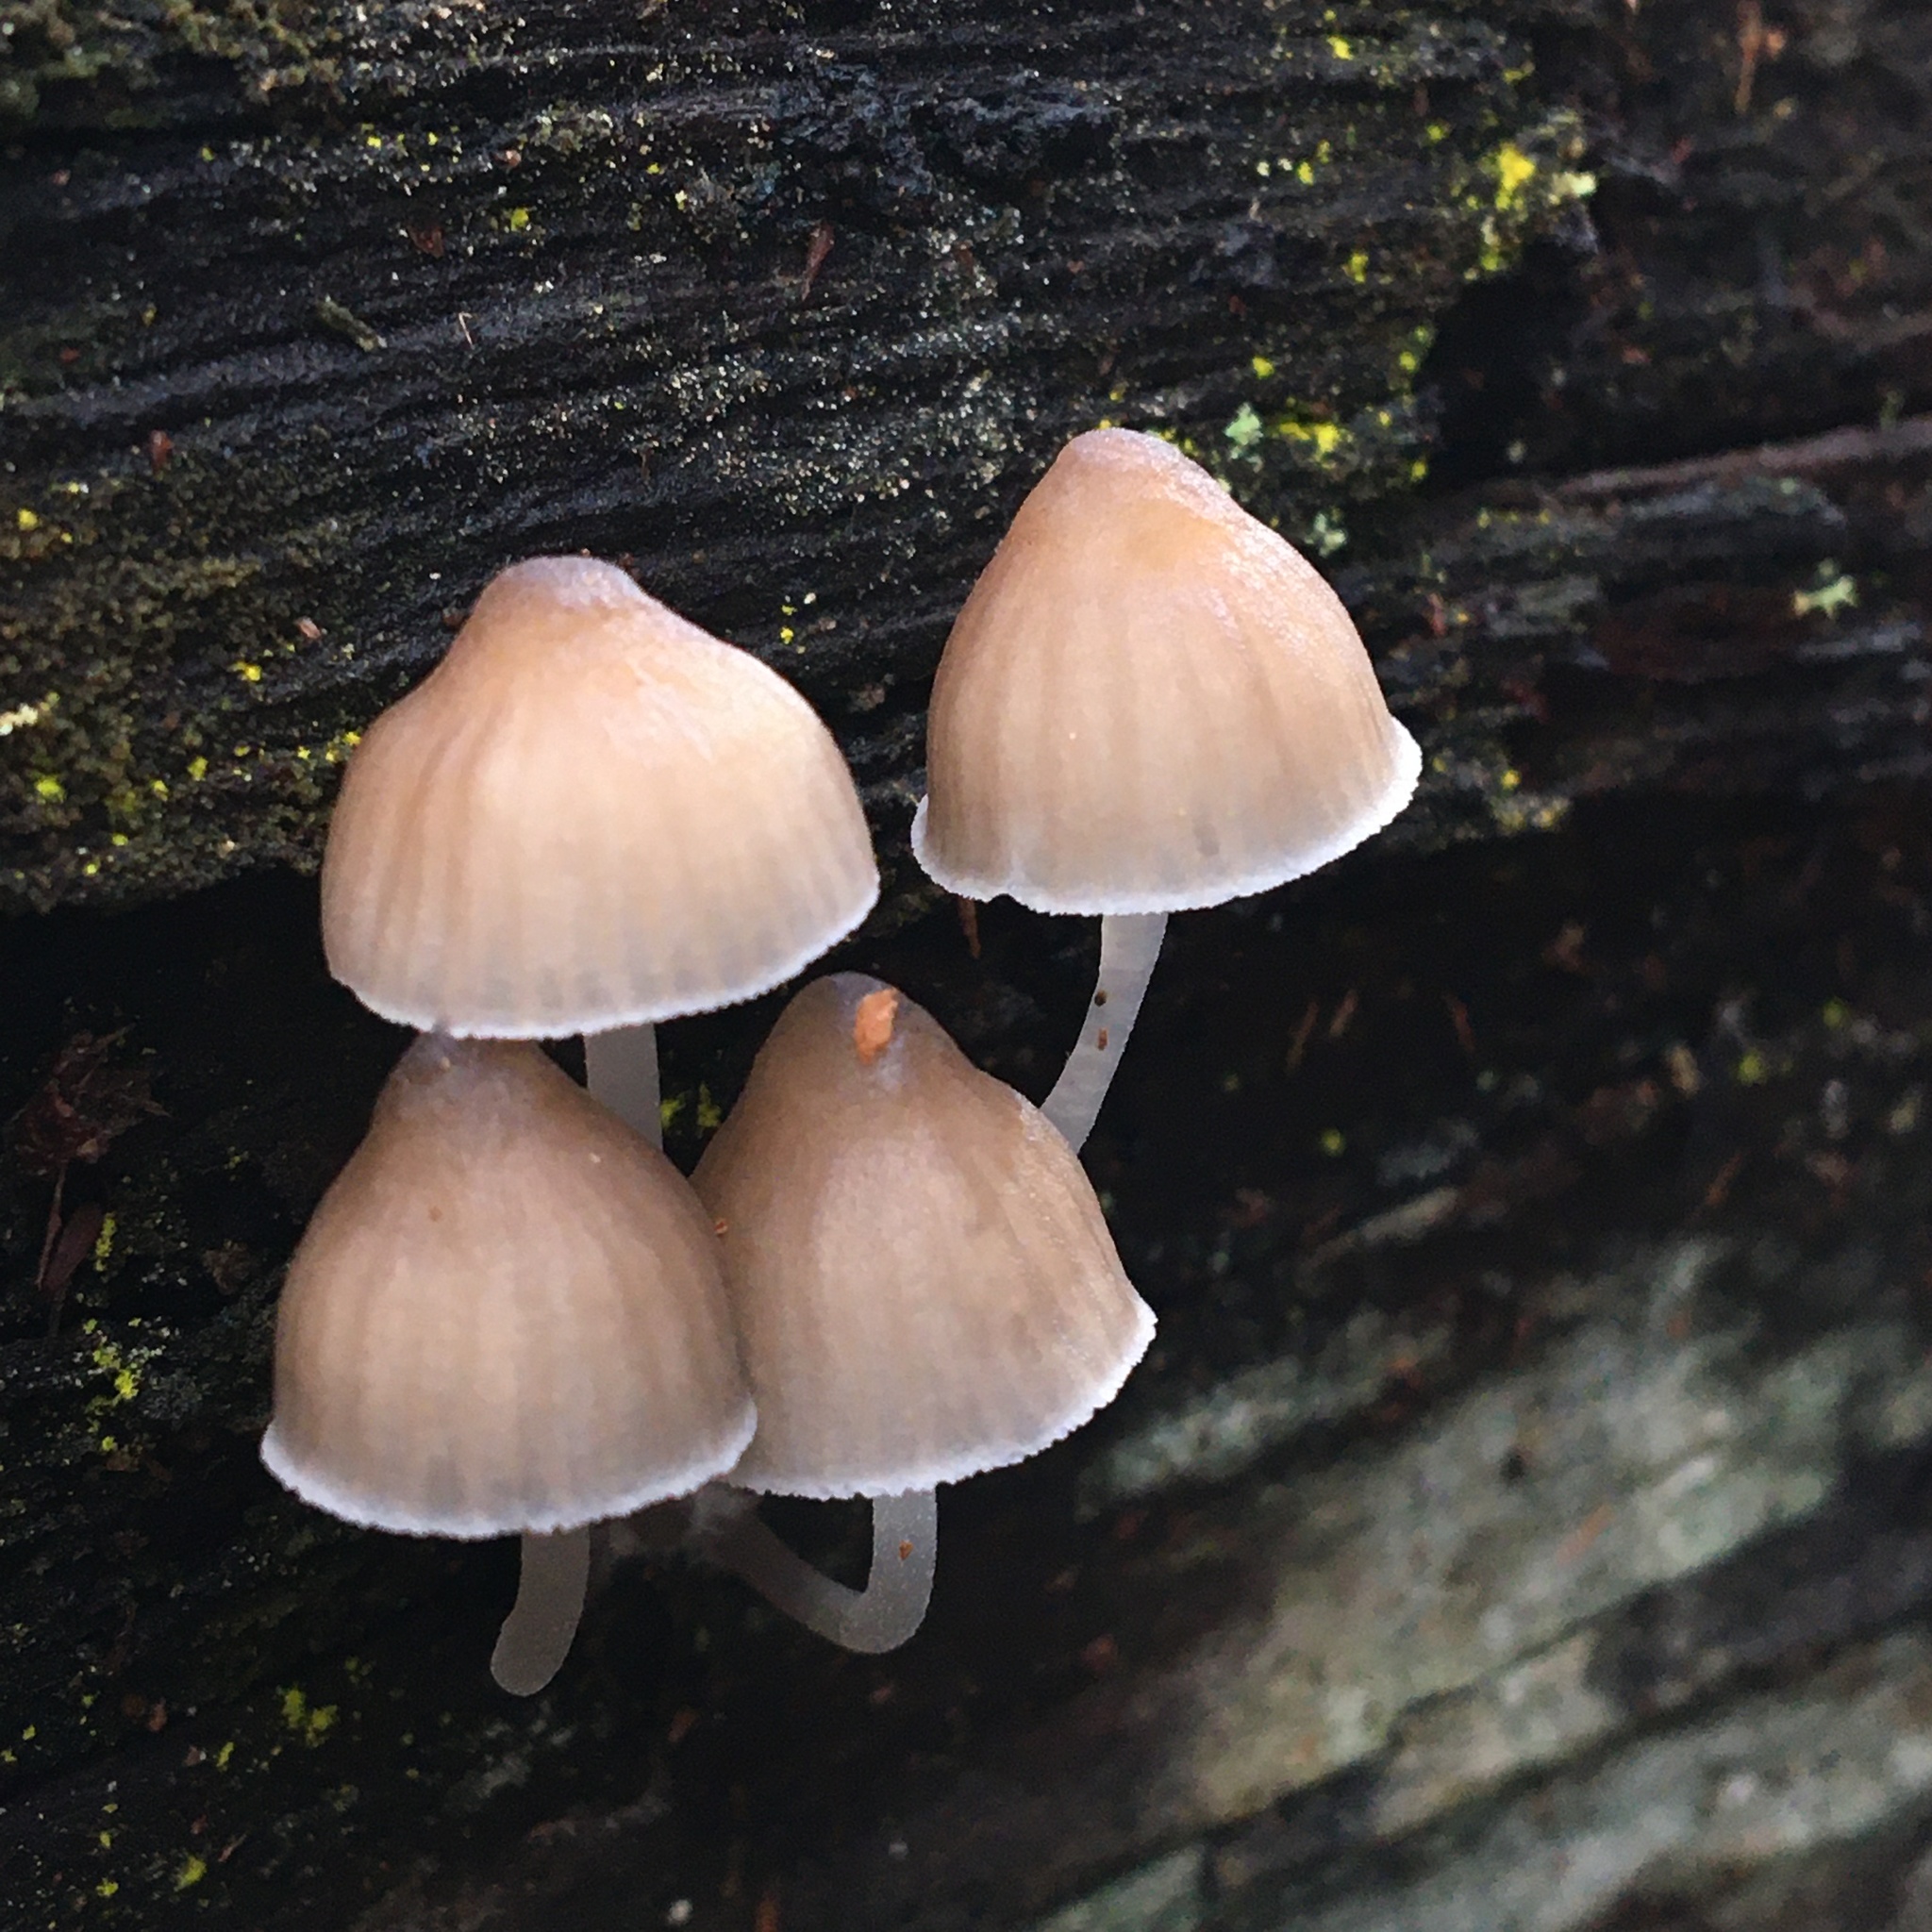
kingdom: Fungi
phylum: Basidiomycota
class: Agaricomycetes
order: Agaricales
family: Mycenaceae
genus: Mycena
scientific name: Mycena clarkeana
